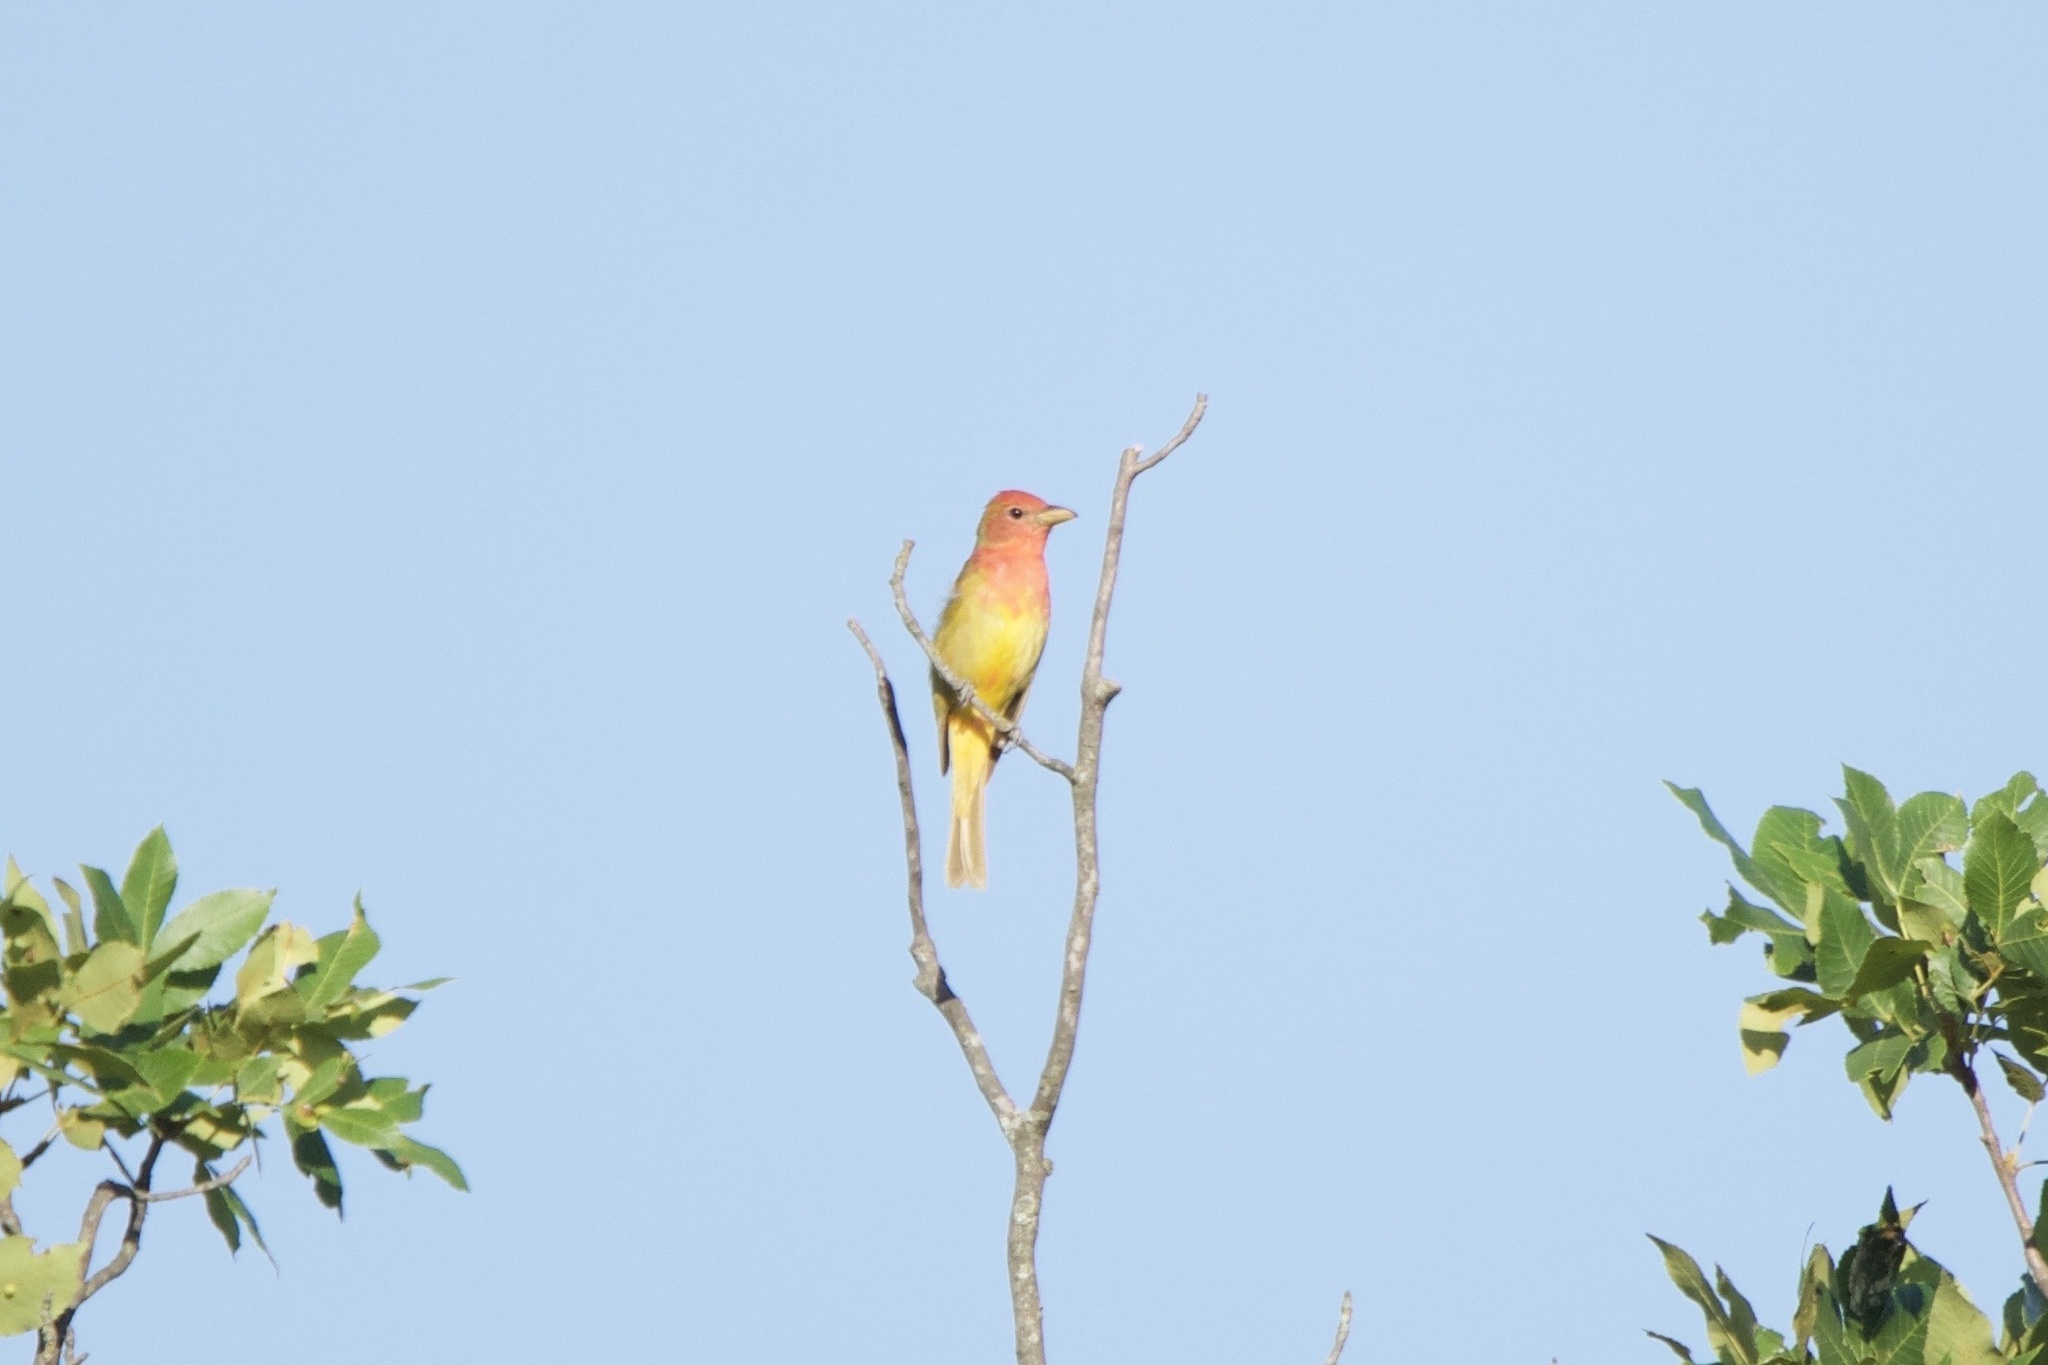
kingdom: Animalia
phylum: Chordata
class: Aves
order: Passeriformes
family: Cardinalidae
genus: Piranga
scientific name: Piranga rubra
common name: Summer tanager
